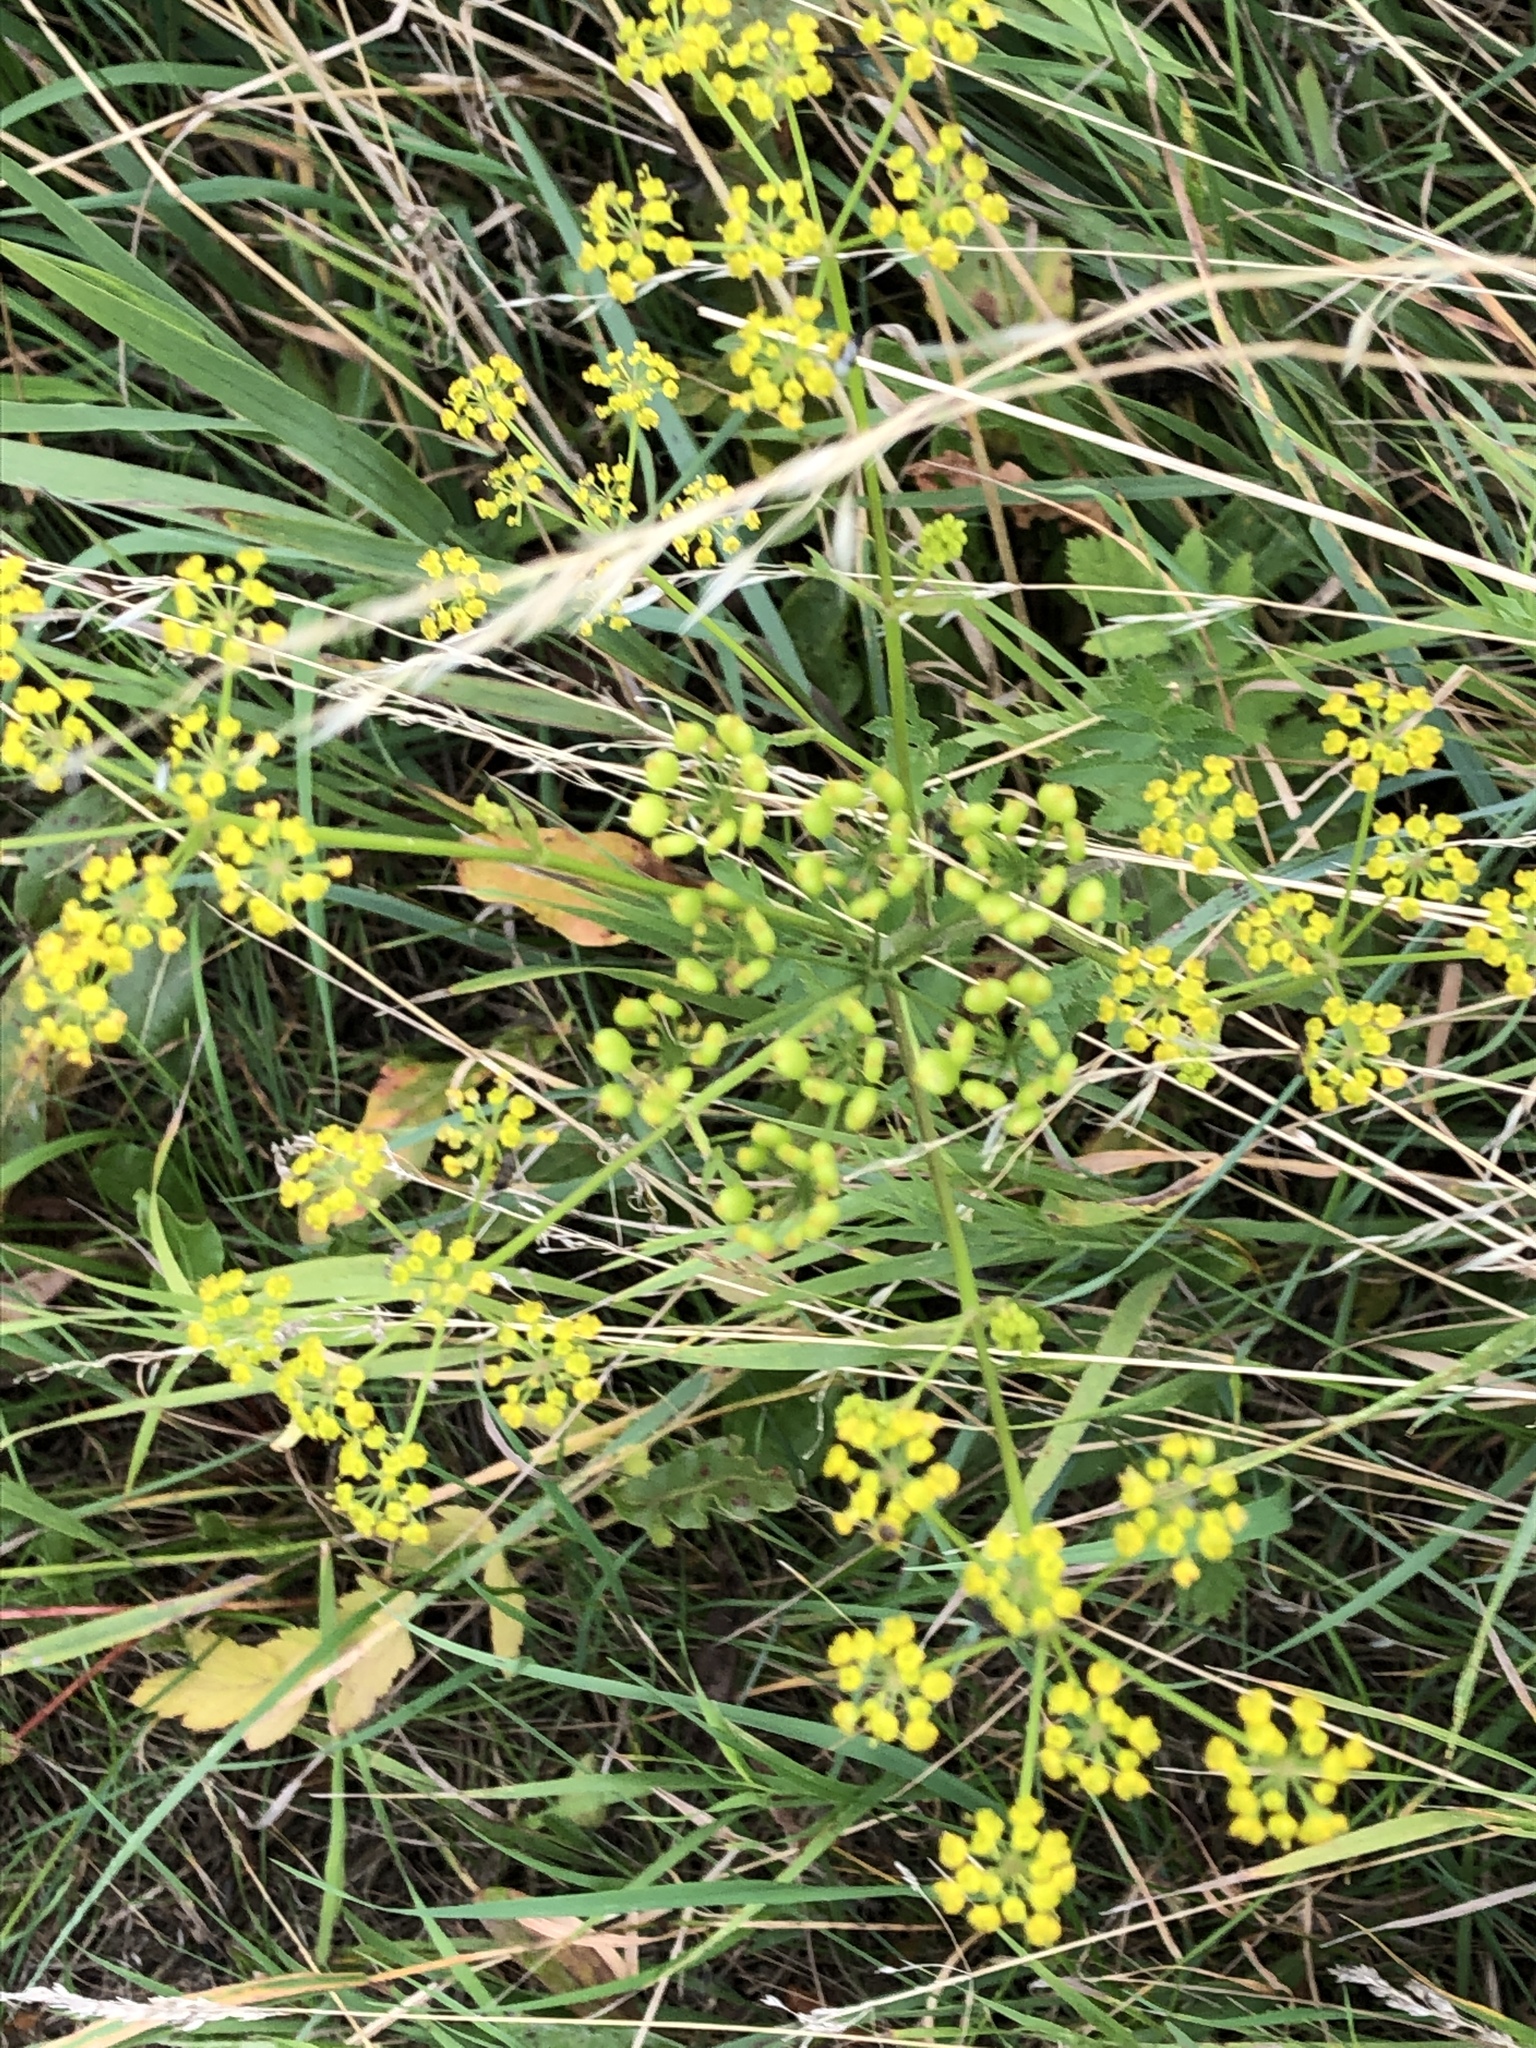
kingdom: Plantae
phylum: Tracheophyta
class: Magnoliopsida
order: Apiales
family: Apiaceae
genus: Pastinaca
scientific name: Pastinaca sativa
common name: Wild parsnip
